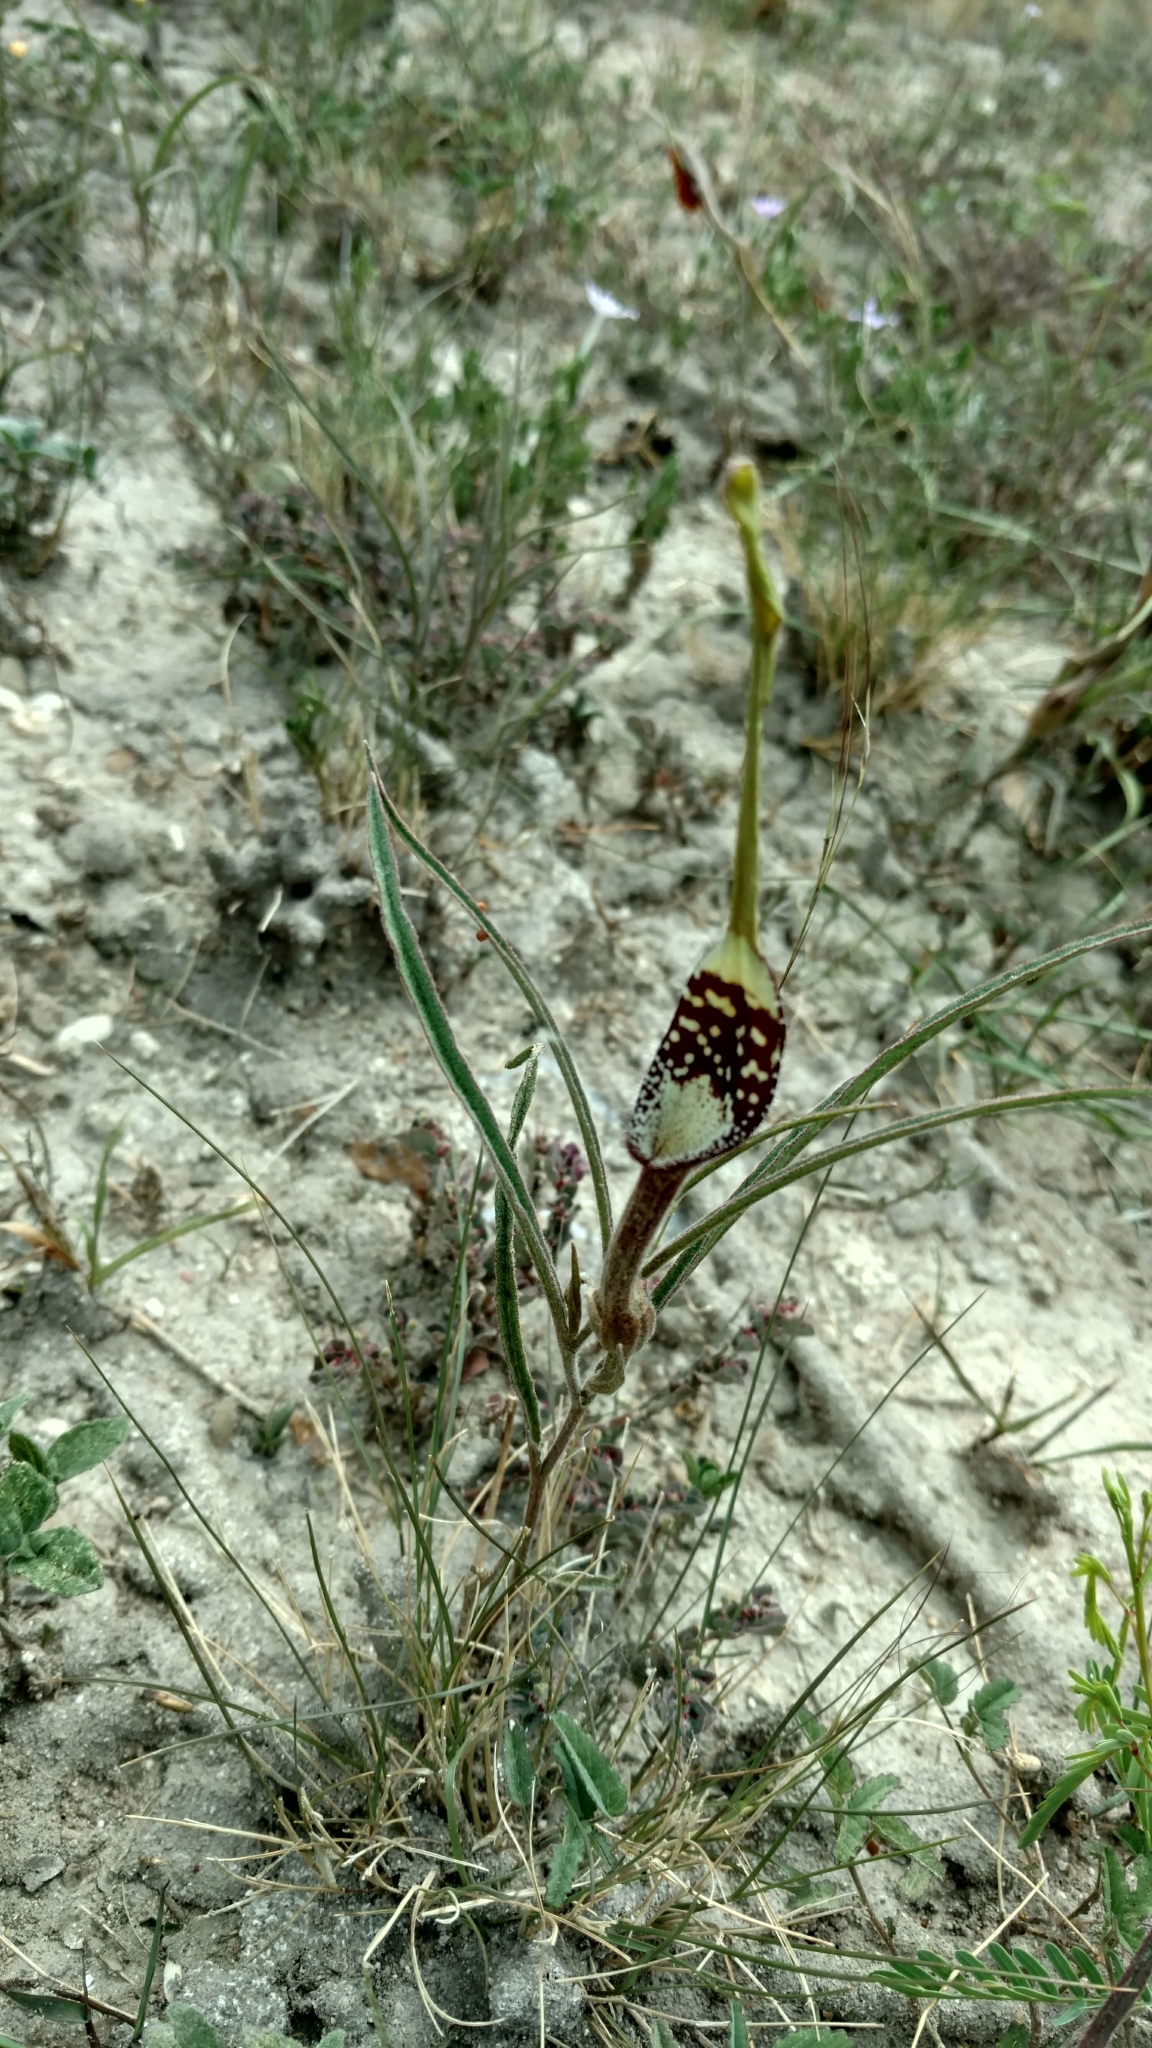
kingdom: Plantae
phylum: Tracheophyta
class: Magnoliopsida
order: Piperales
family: Aristolochiaceae
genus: Aristolochia
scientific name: Aristolochia erecta
